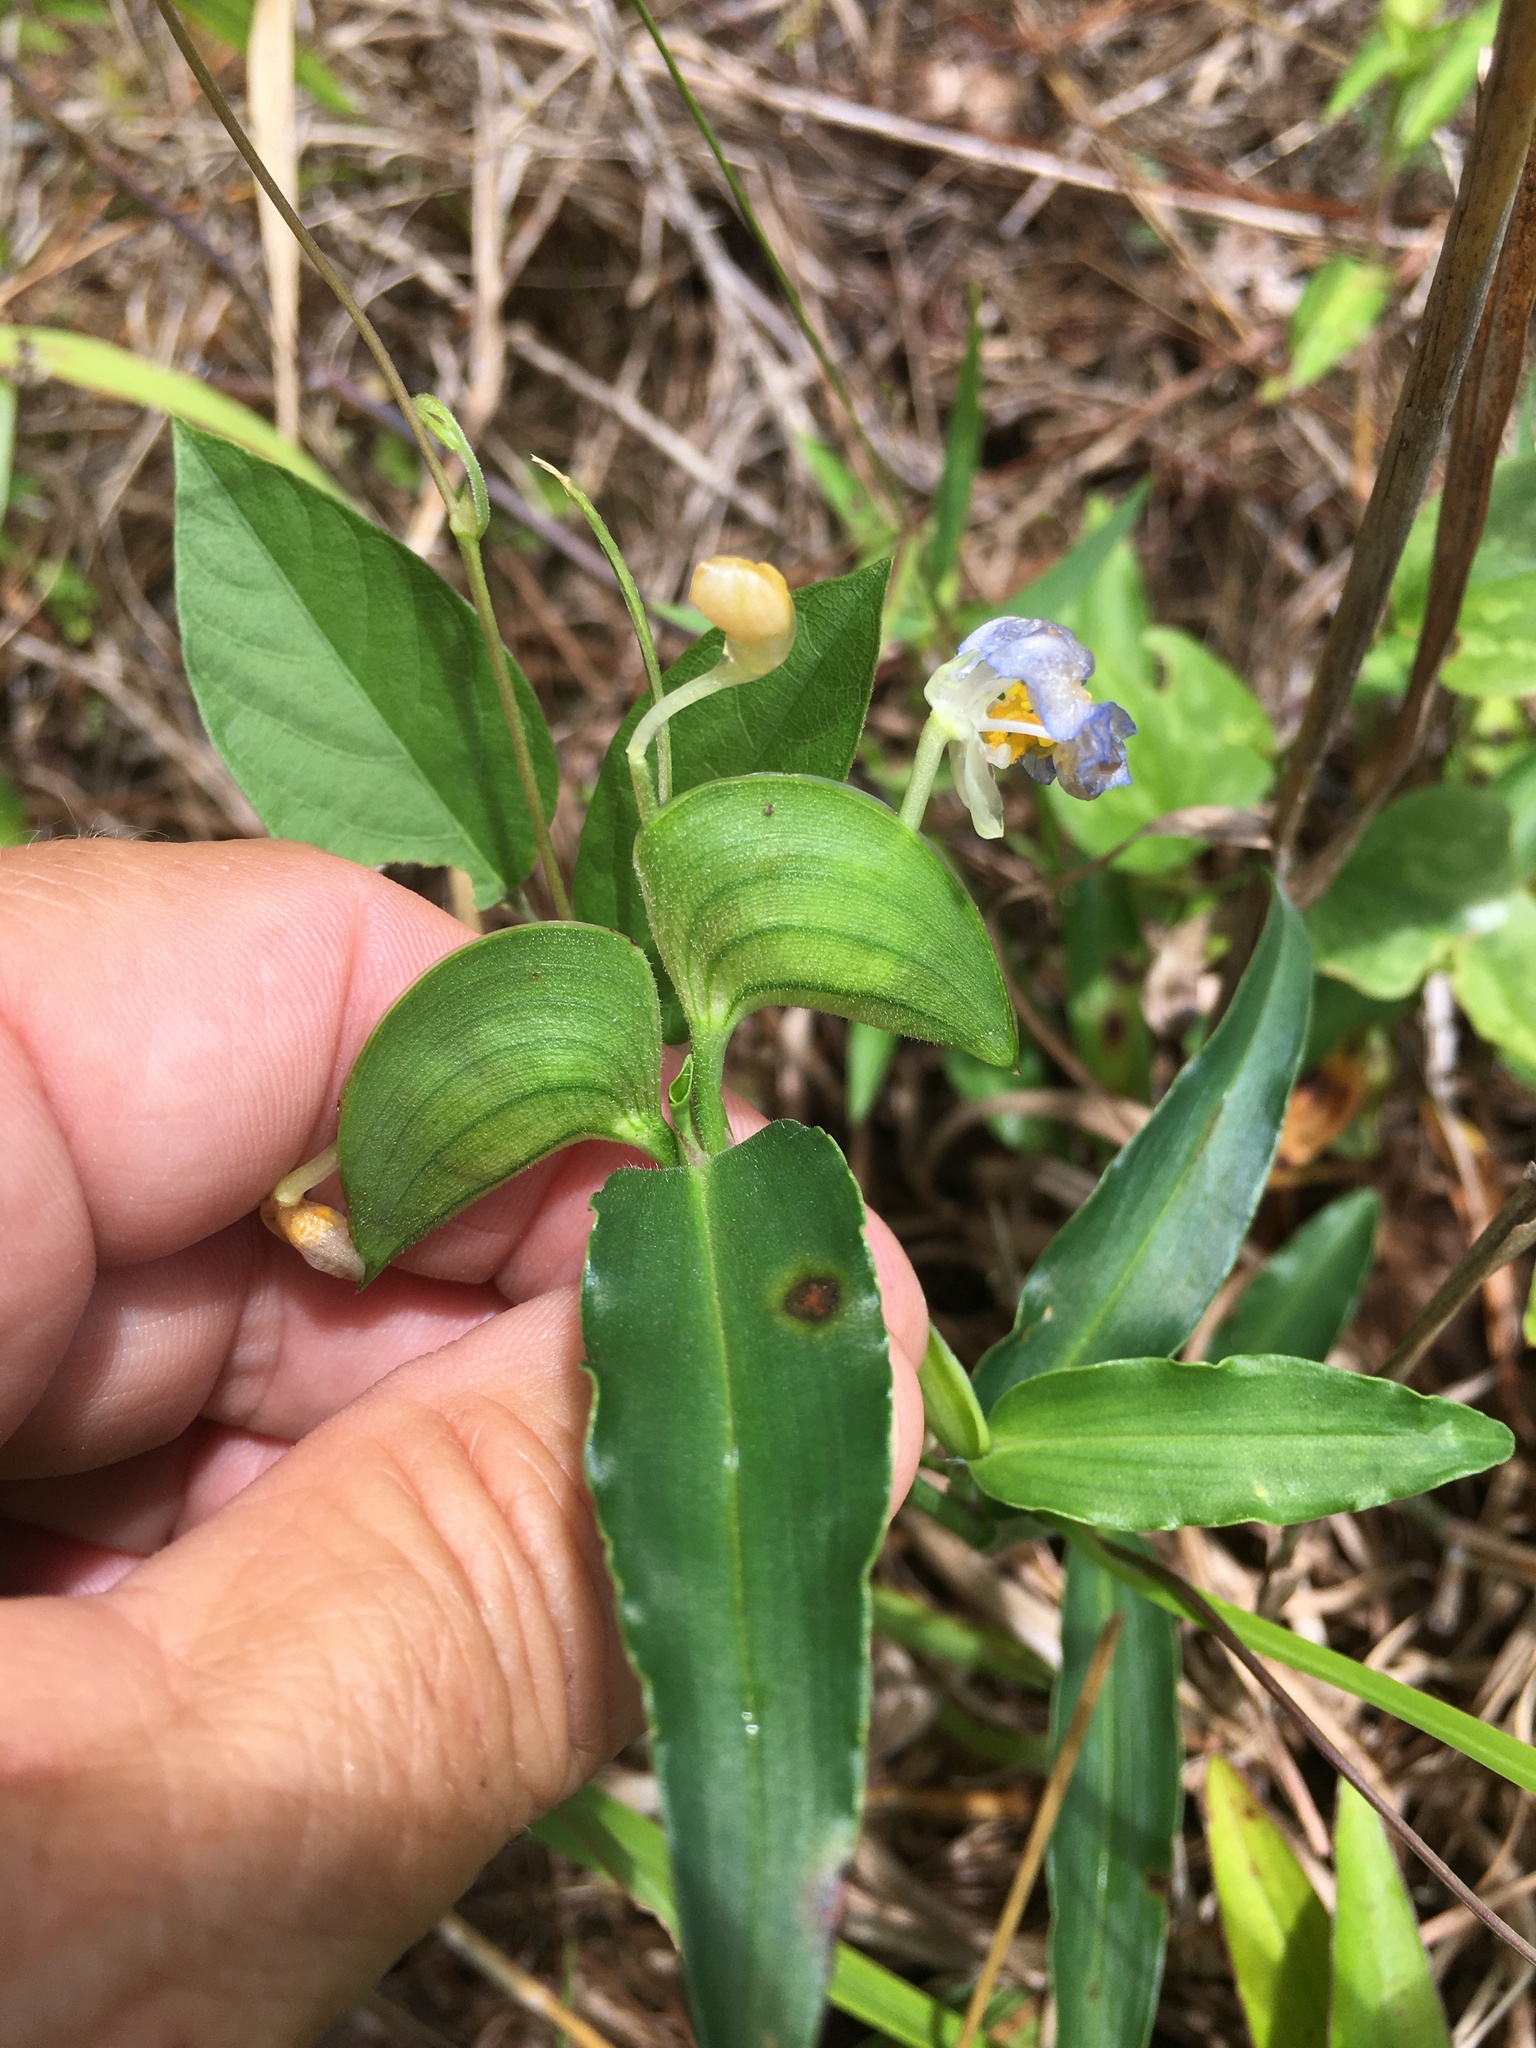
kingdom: Plantae
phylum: Tracheophyta
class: Liliopsida
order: Commelinales
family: Commelinaceae
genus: Commelina
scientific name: Commelina erecta
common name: Blousel blommetjie
